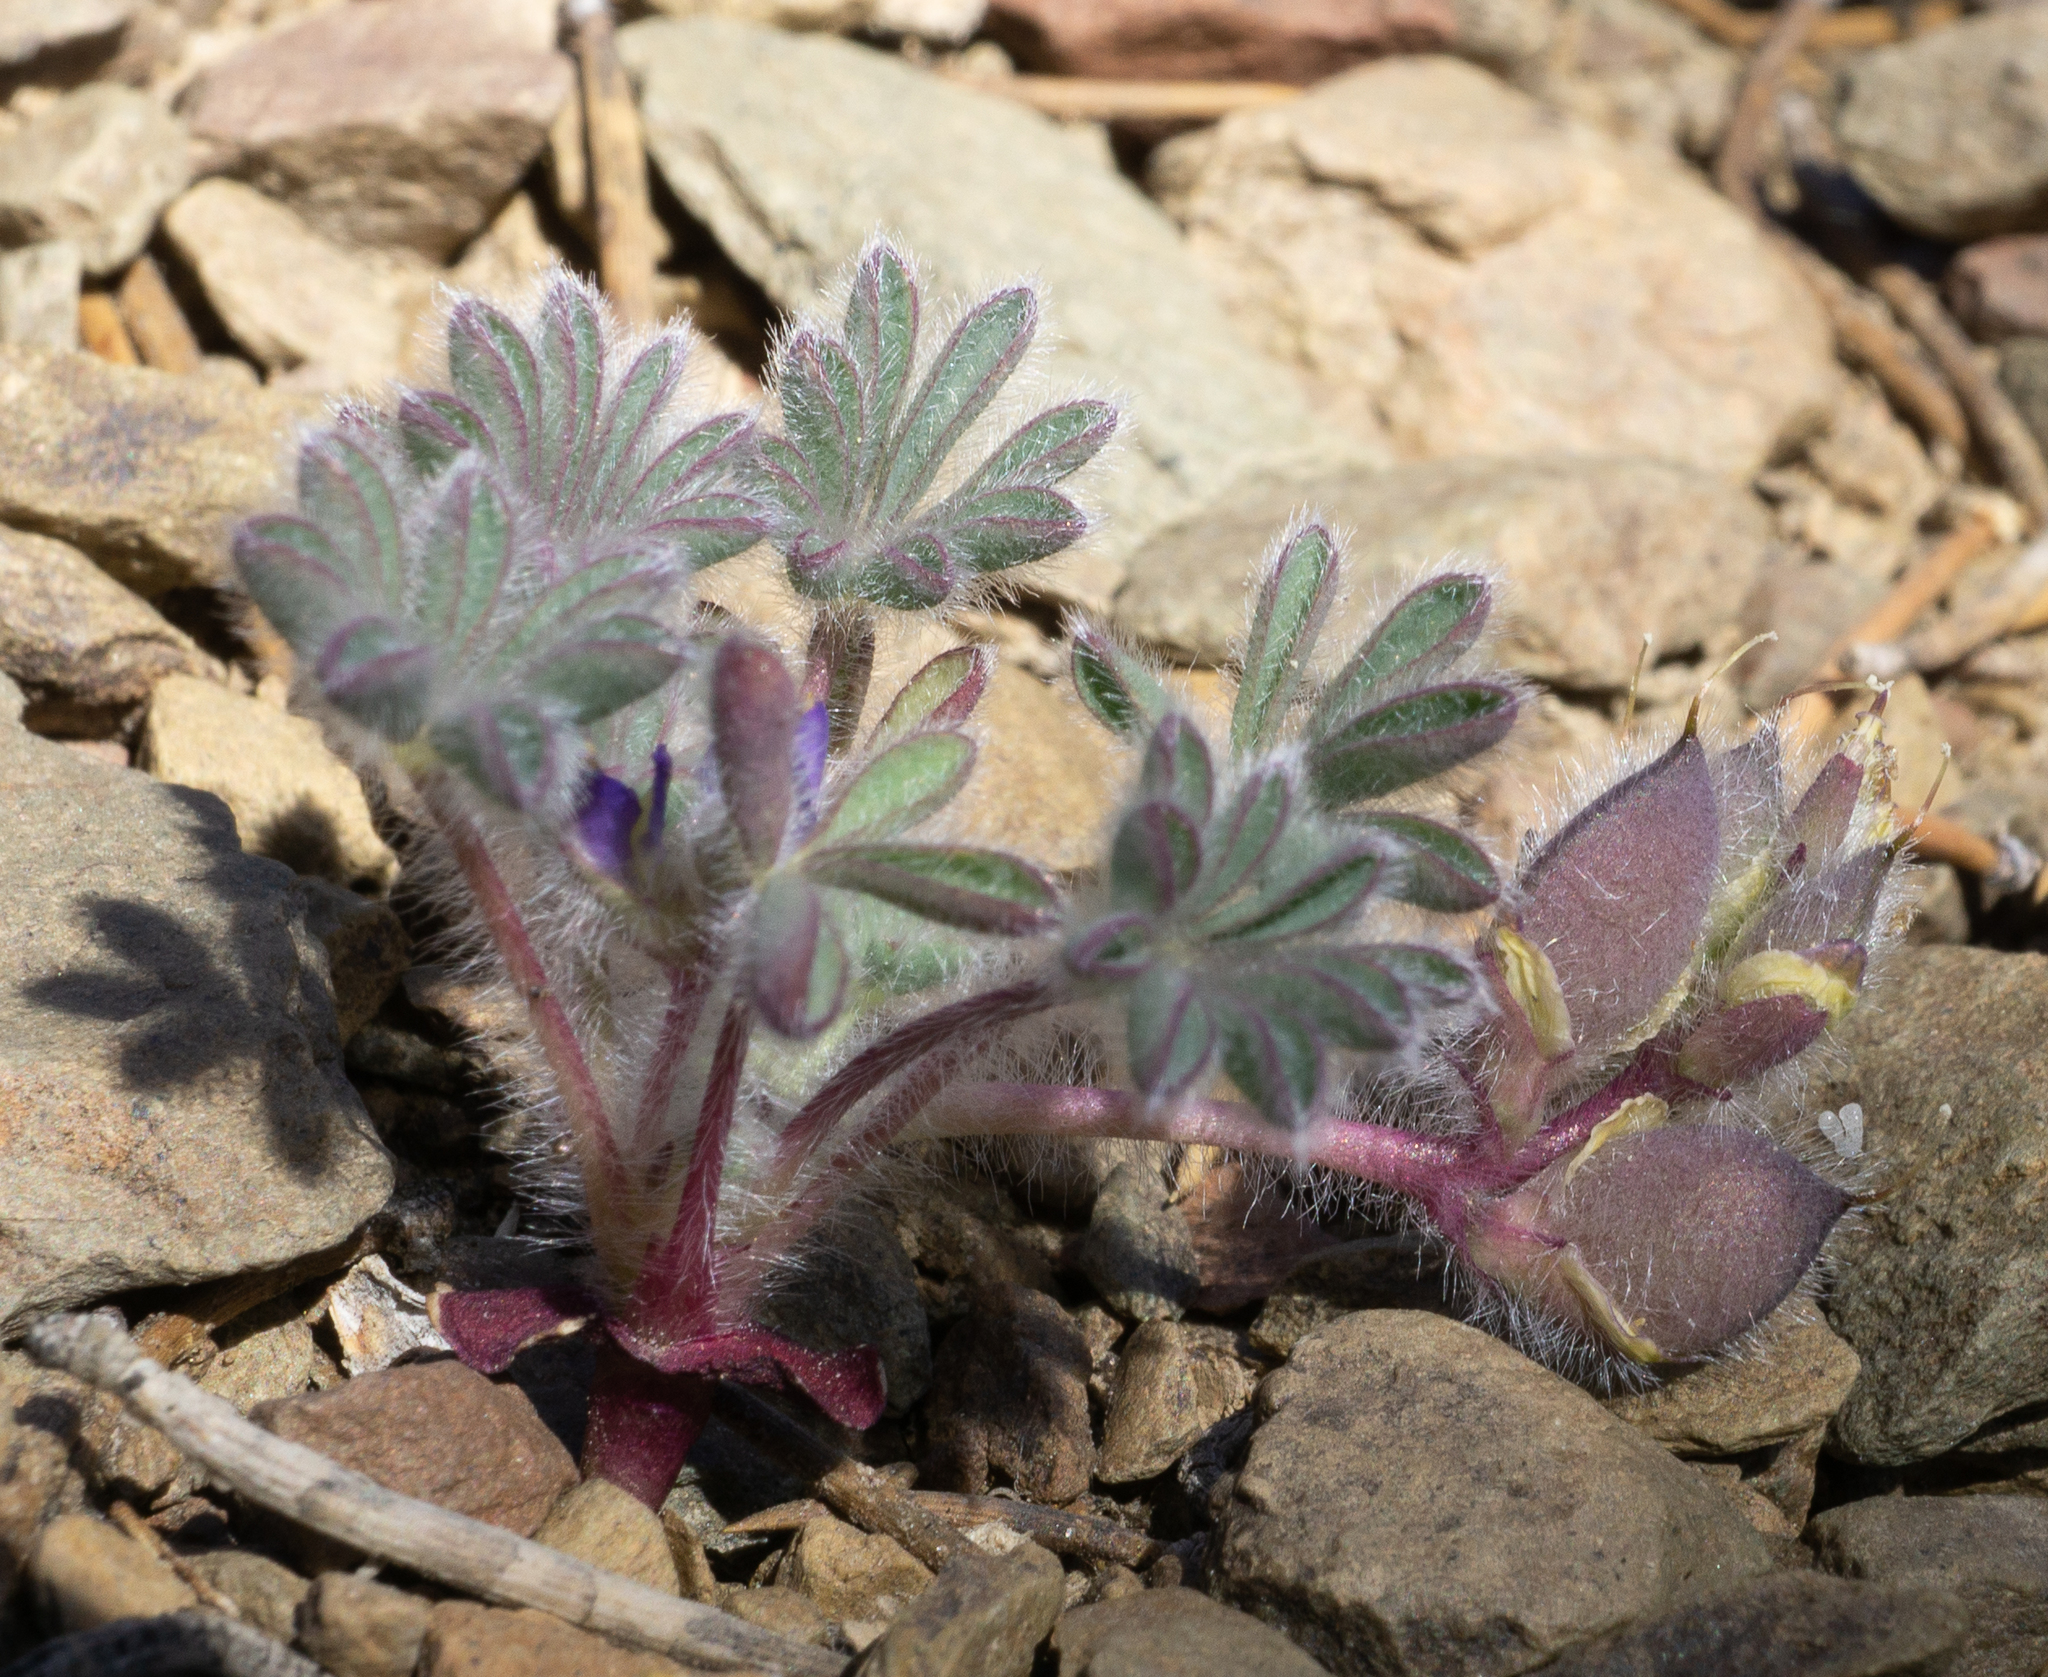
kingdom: Plantae
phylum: Tracheophyta
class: Magnoliopsida
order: Fabales
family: Fabaceae
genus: Lupinus
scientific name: Lupinus brevicaulis
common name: Sand lupine
